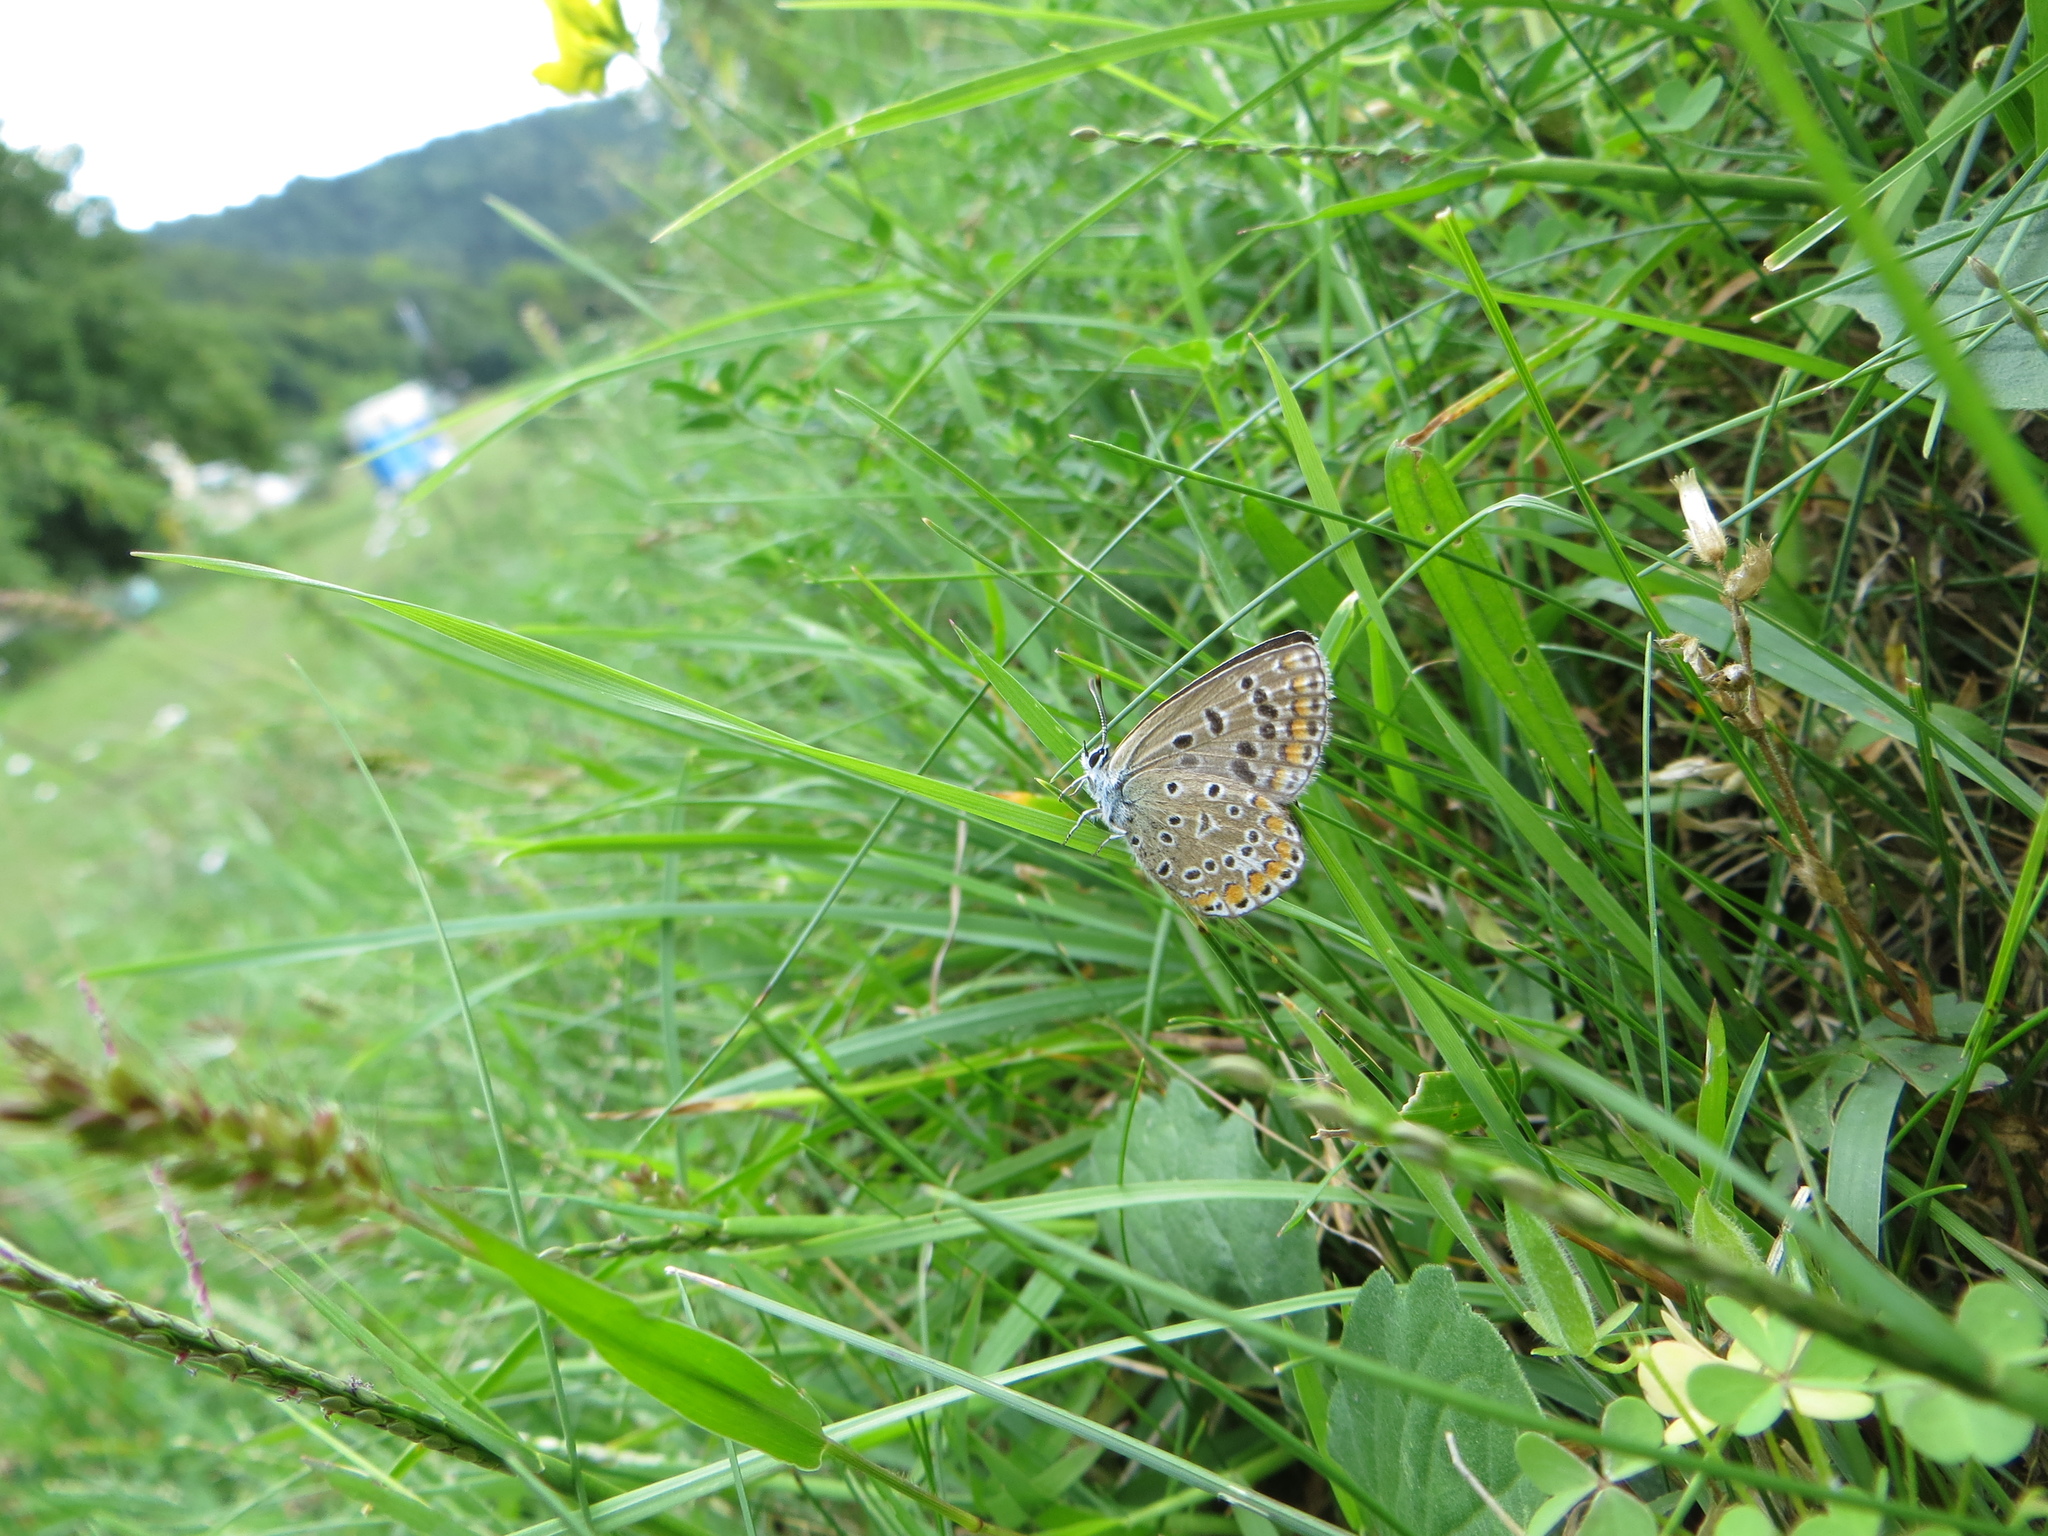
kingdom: Animalia
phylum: Arthropoda
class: Insecta
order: Lepidoptera
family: Lycaenidae
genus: Polyommatus
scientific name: Polyommatus icarus
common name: Common blue
